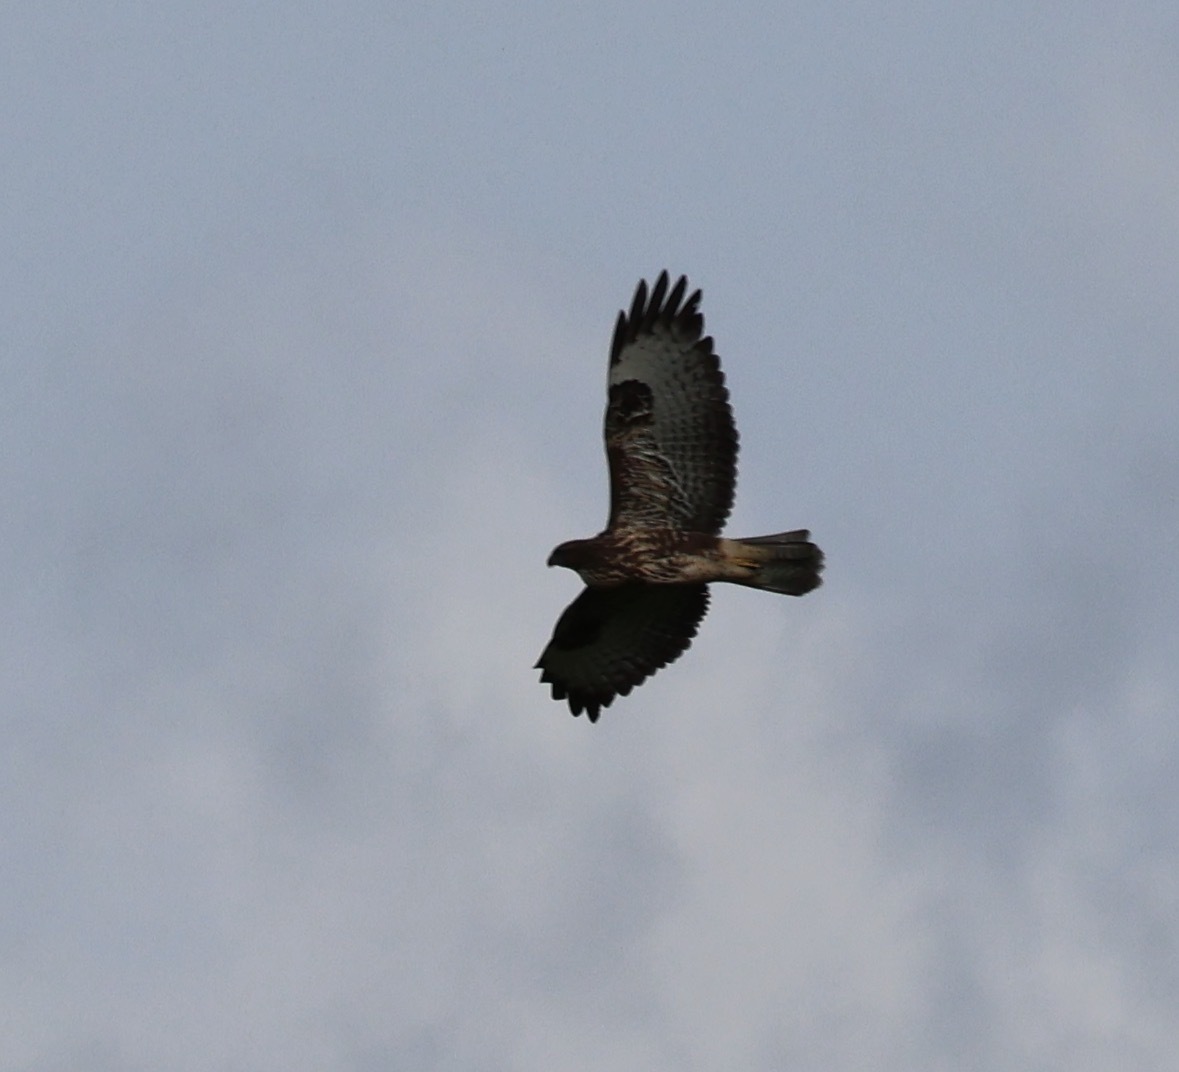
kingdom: Animalia
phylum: Chordata
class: Aves
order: Accipitriformes
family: Accipitridae
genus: Buteo
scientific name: Buteo buteo
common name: Common buzzard
